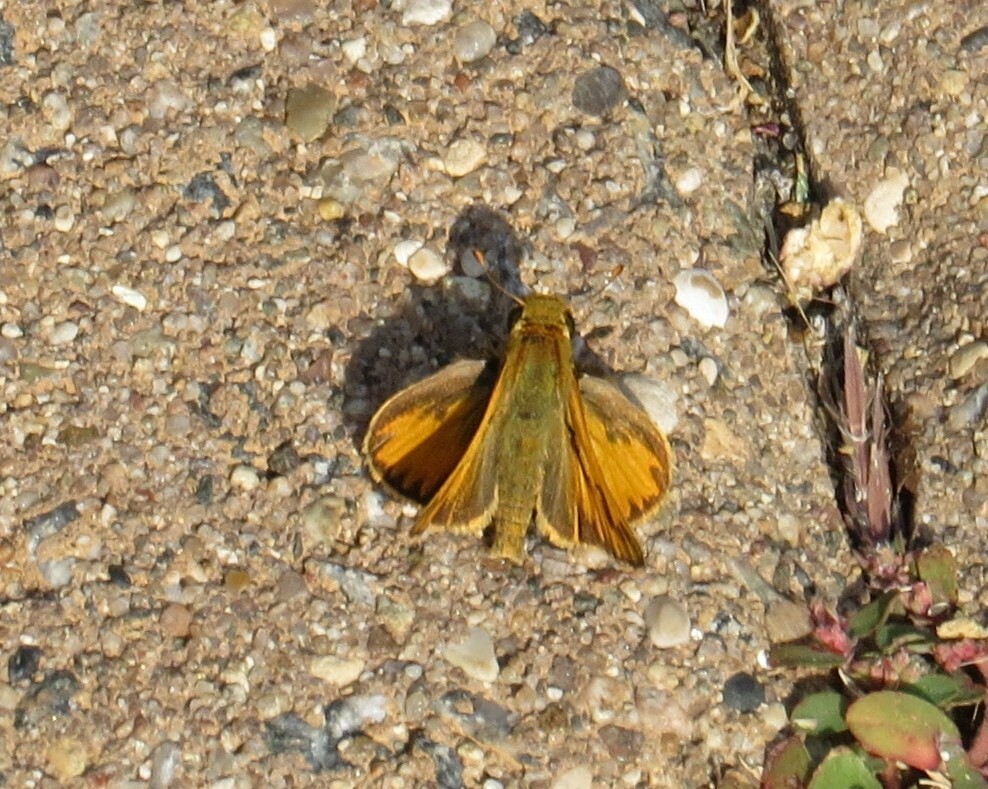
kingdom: Animalia
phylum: Arthropoda
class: Insecta
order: Lepidoptera
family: Hesperiidae
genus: Hylephila
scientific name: Hylephila phyleus
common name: Fiery skipper
